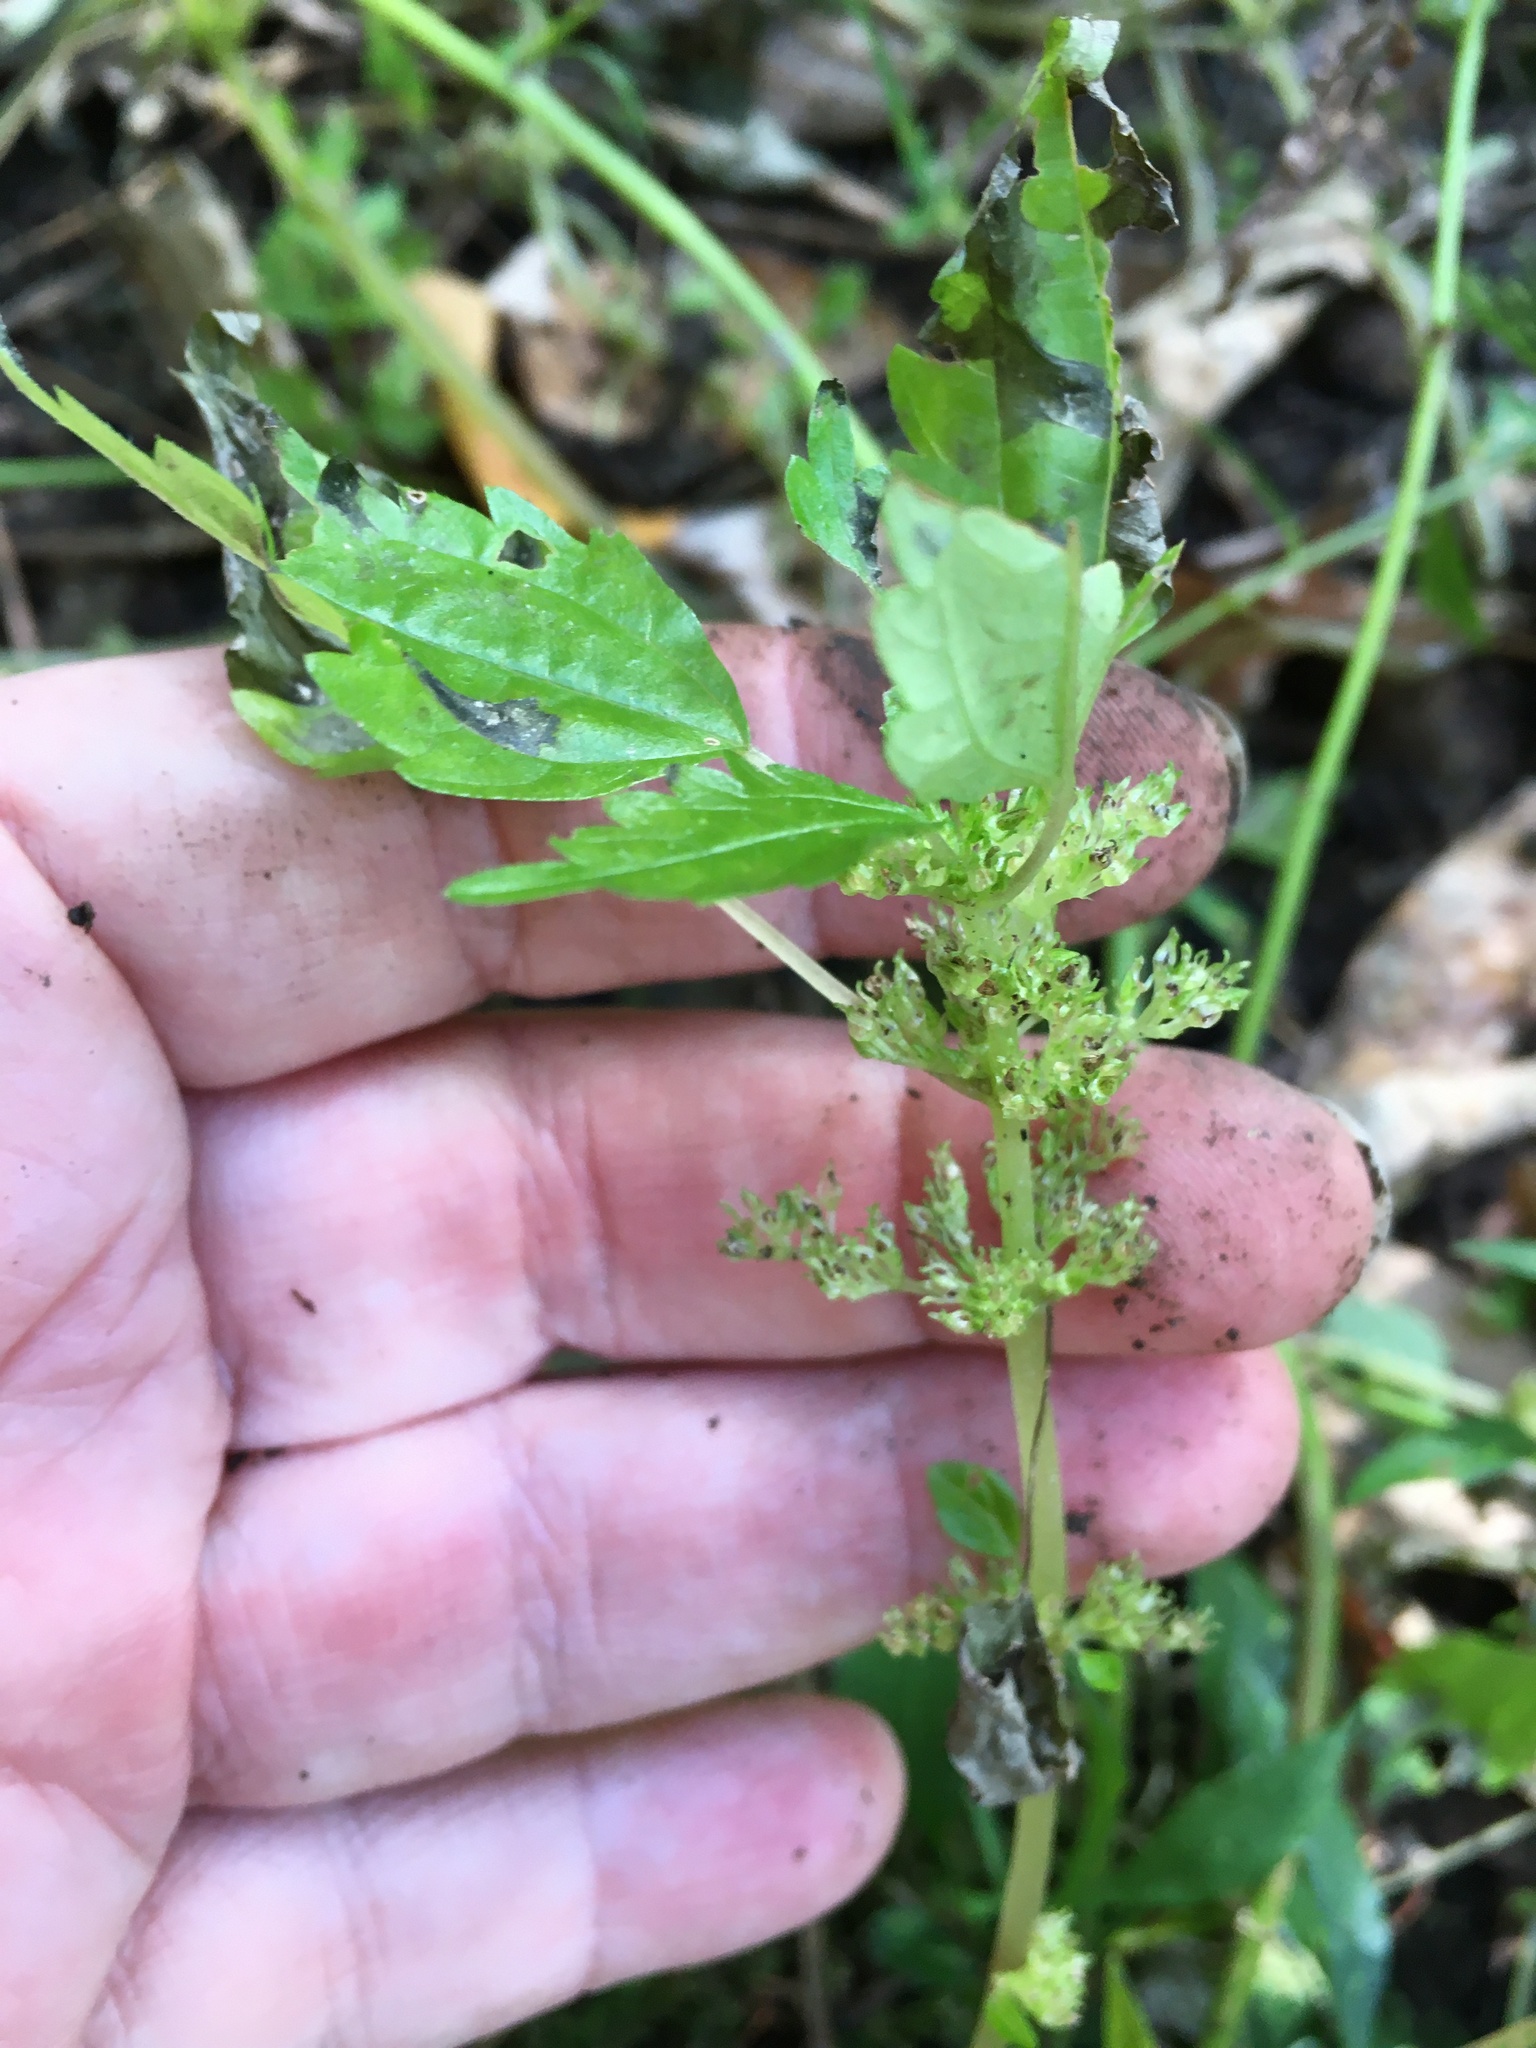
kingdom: Plantae
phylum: Tracheophyta
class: Magnoliopsida
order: Rosales
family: Urticaceae
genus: Pilea
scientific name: Pilea pumila
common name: Clearweed
